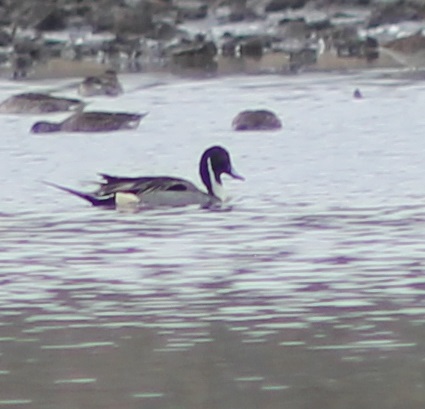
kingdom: Animalia
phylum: Chordata
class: Aves
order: Anseriformes
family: Anatidae
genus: Anas
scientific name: Anas acuta
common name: Northern pintail
